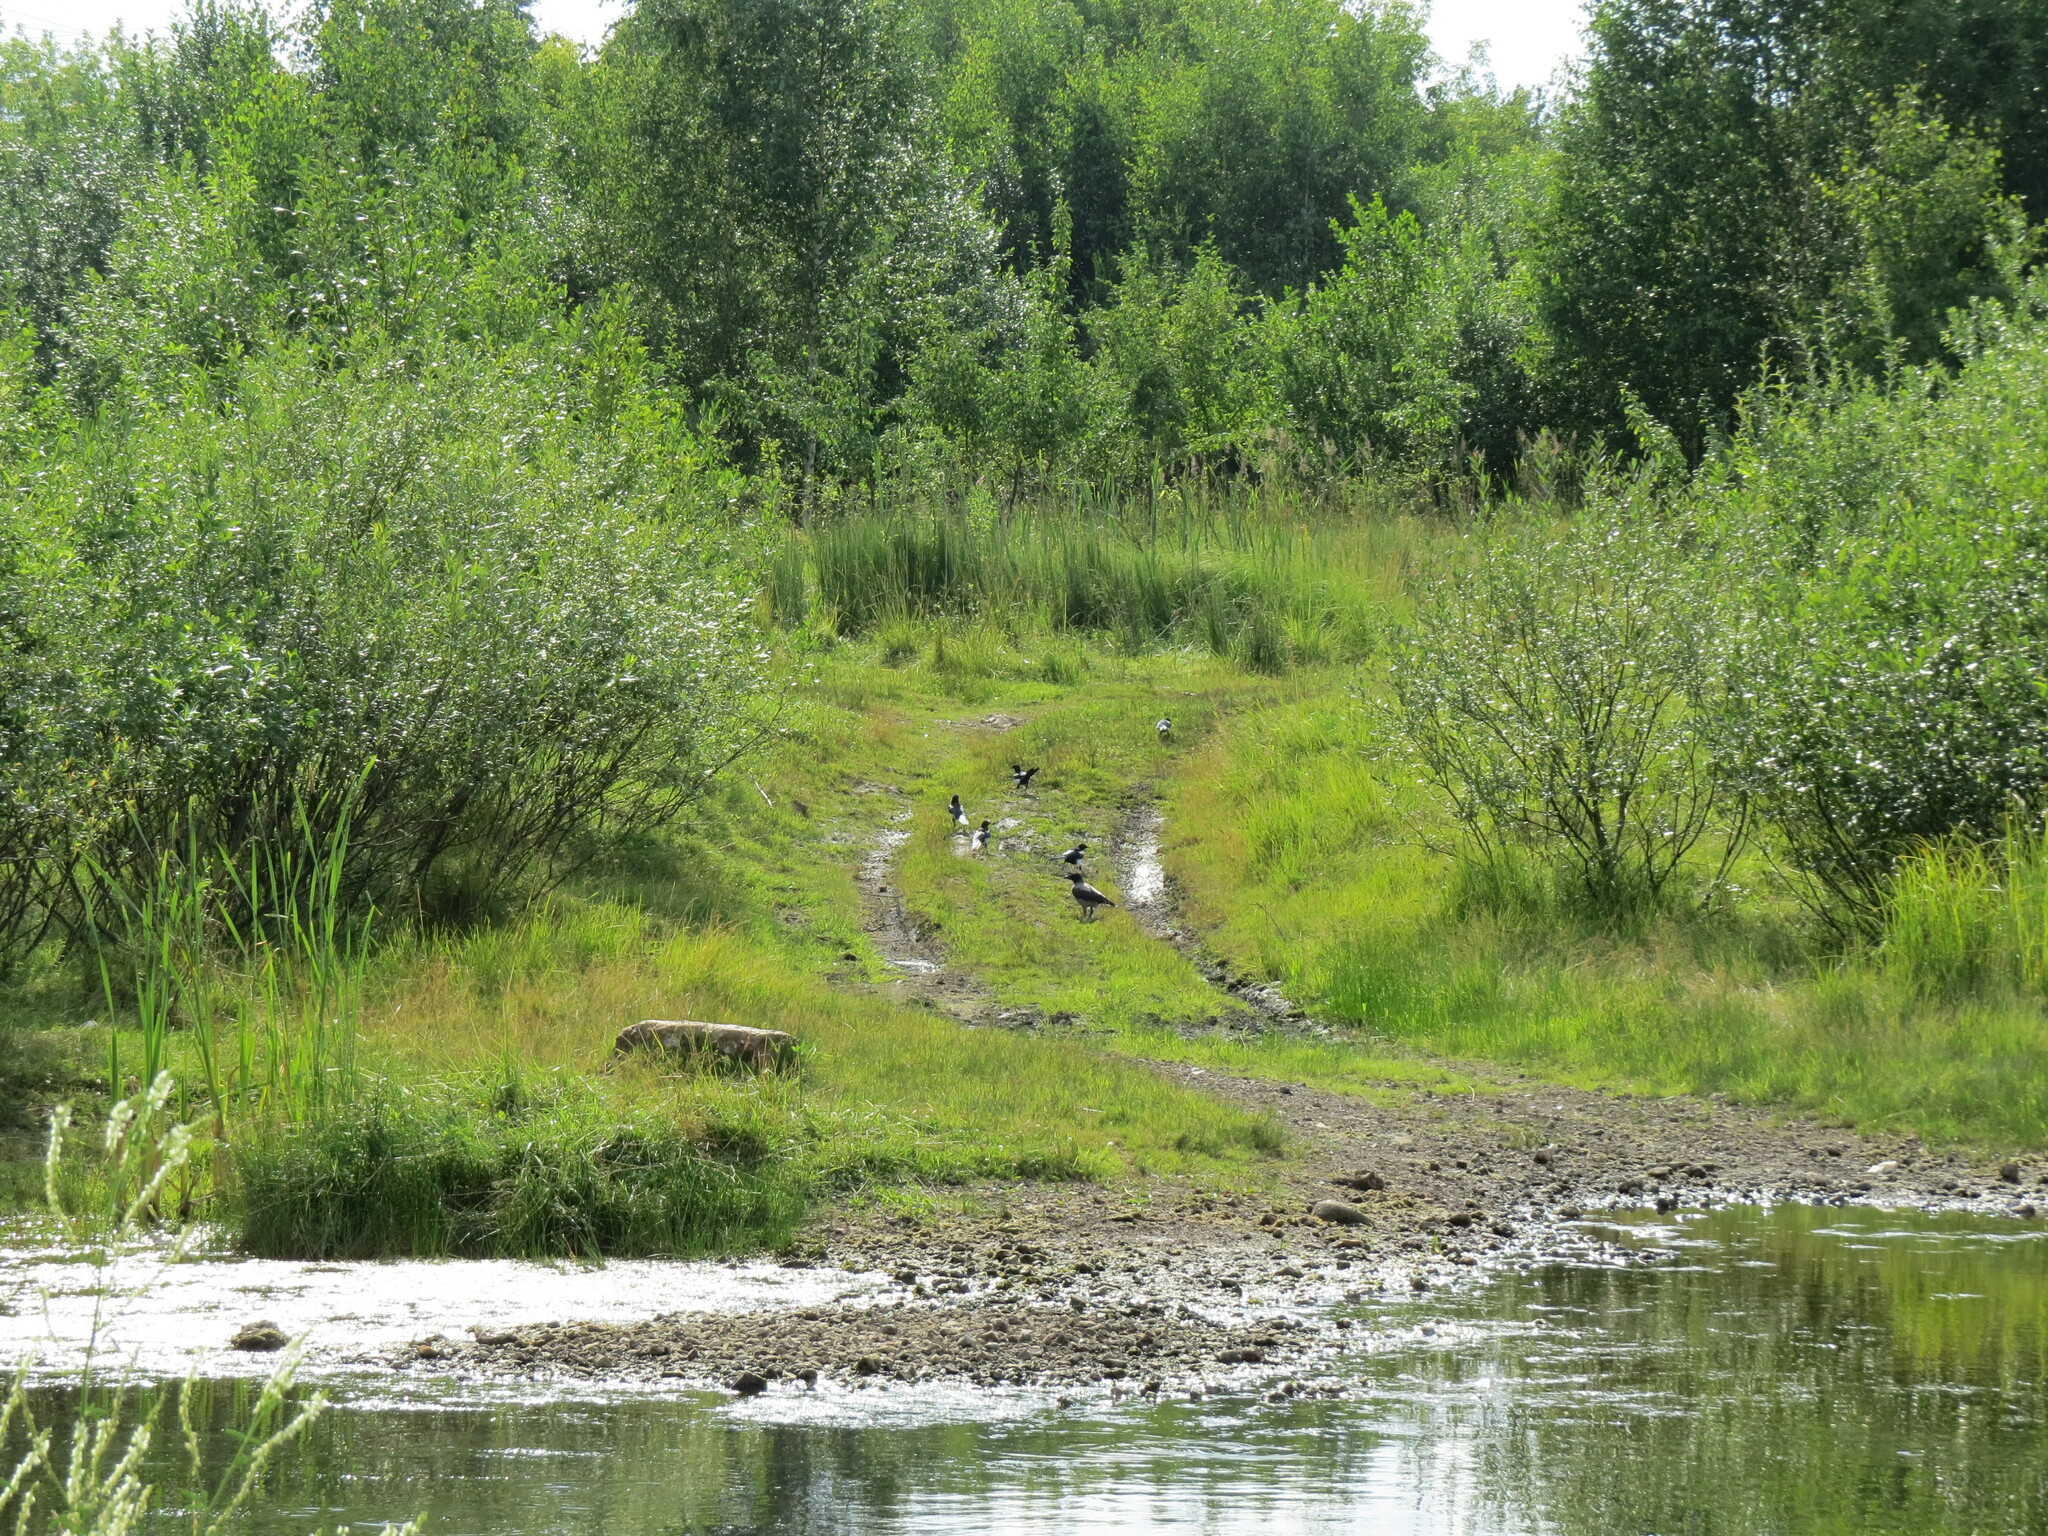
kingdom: Animalia
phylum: Chordata
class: Aves
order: Passeriformes
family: Corvidae
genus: Corvus
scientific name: Corvus cornix
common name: Hooded crow
